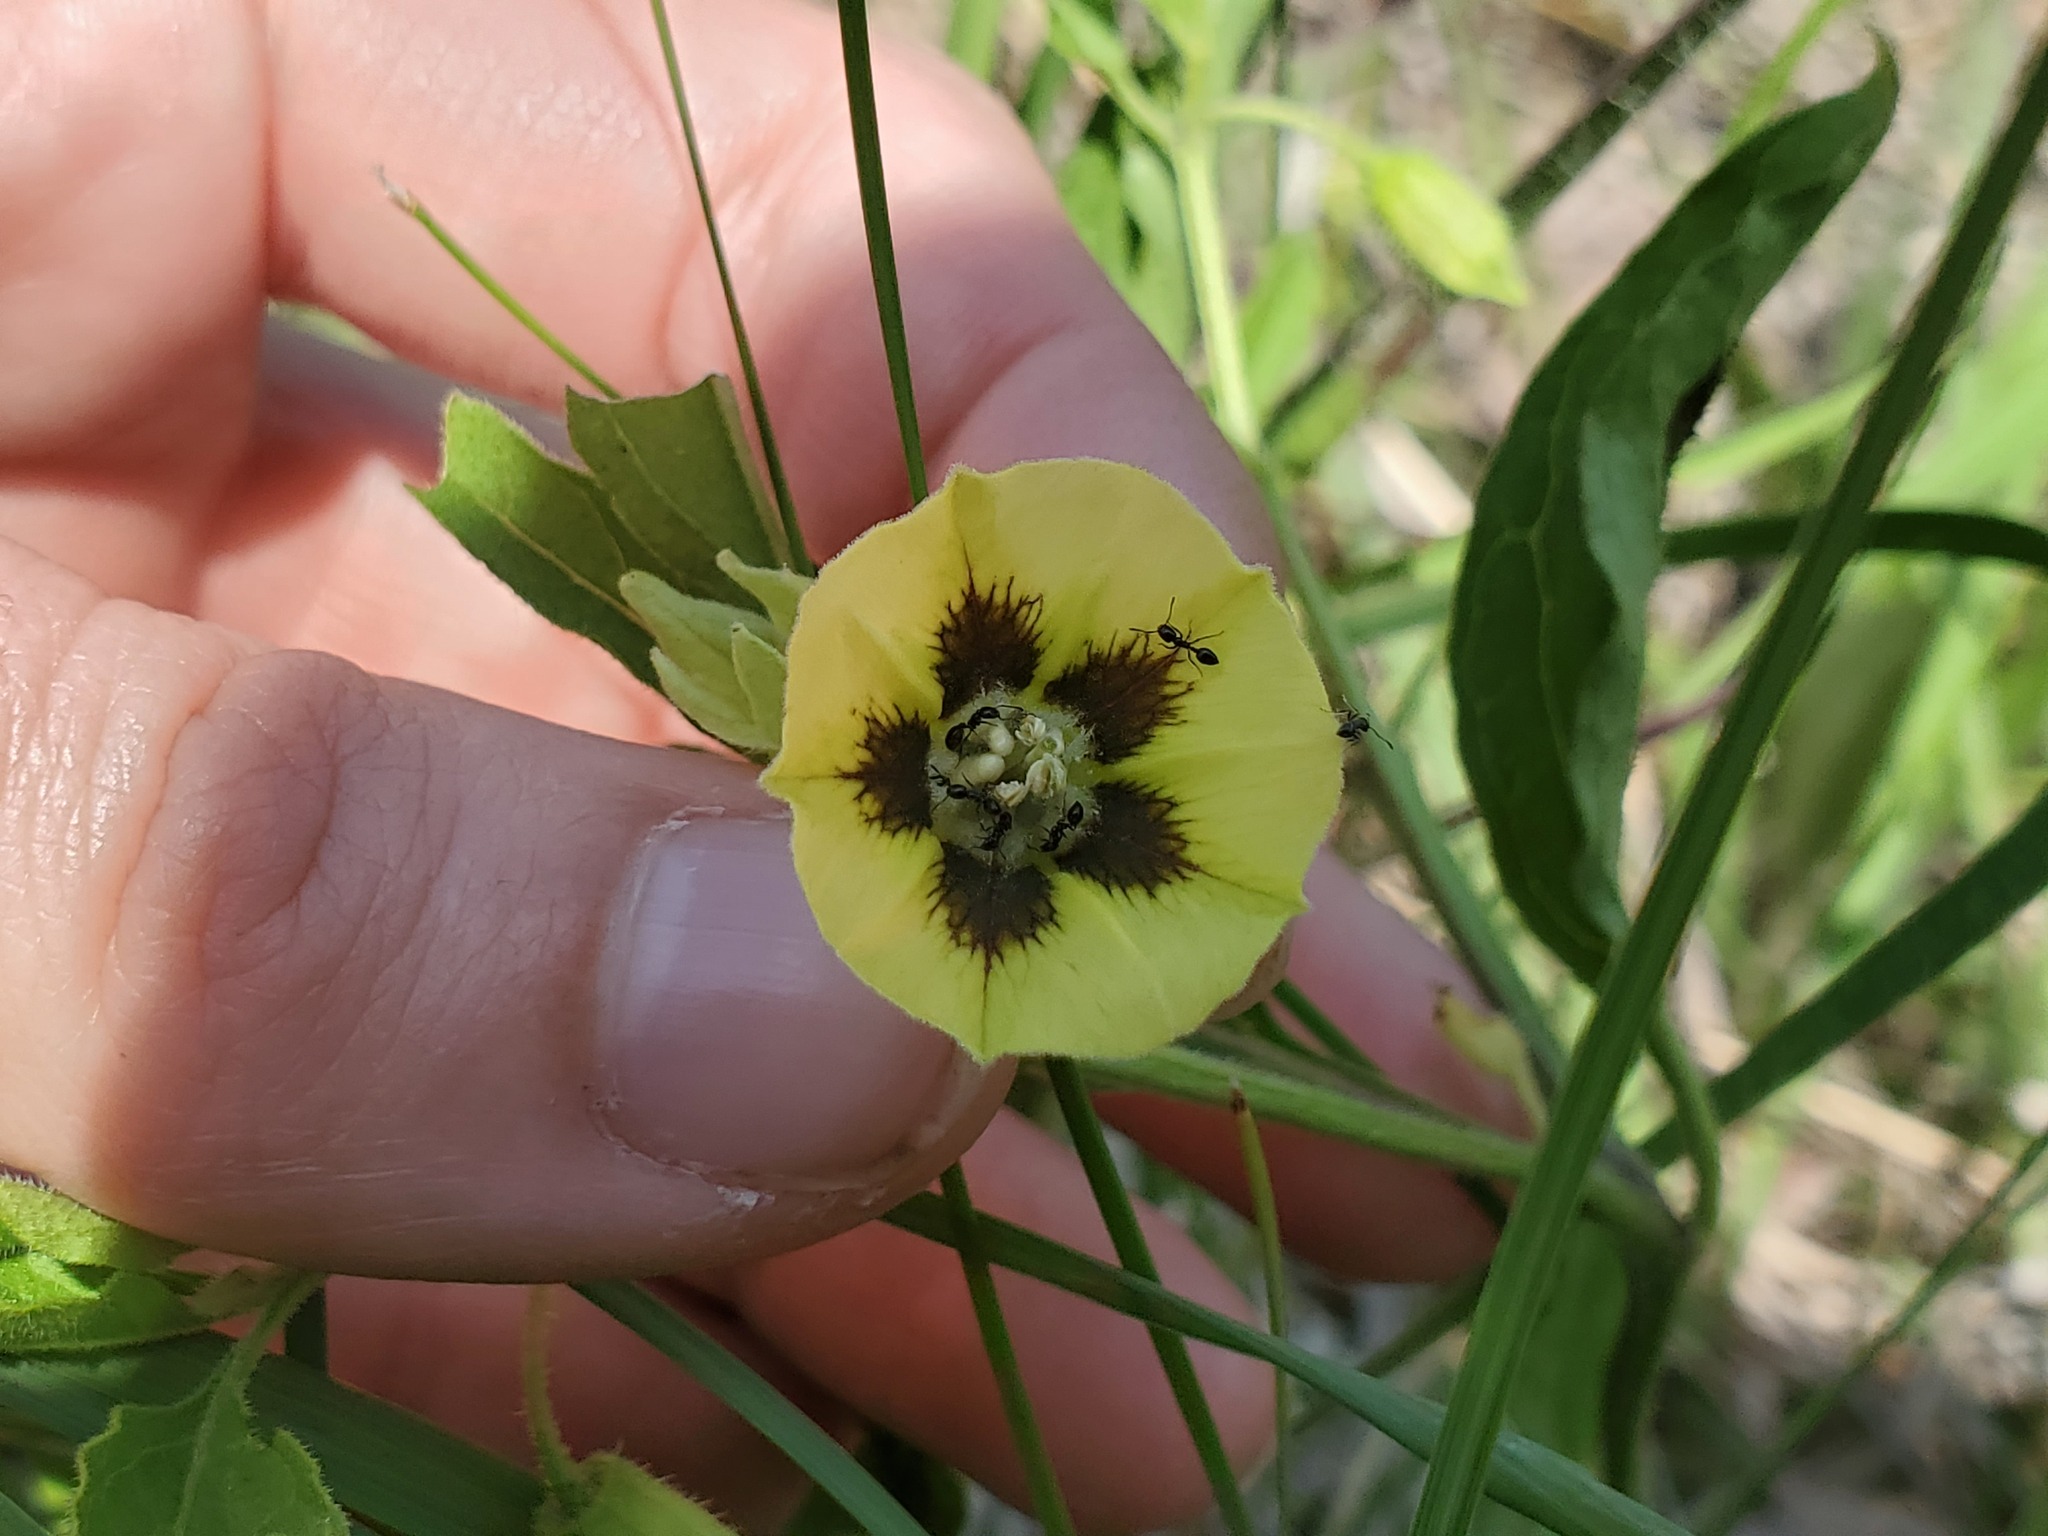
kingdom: Animalia
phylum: Arthropoda
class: Insecta
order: Hymenoptera
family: Formicidae
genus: Monomorium
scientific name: Monomorium minimum
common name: Little black ant
